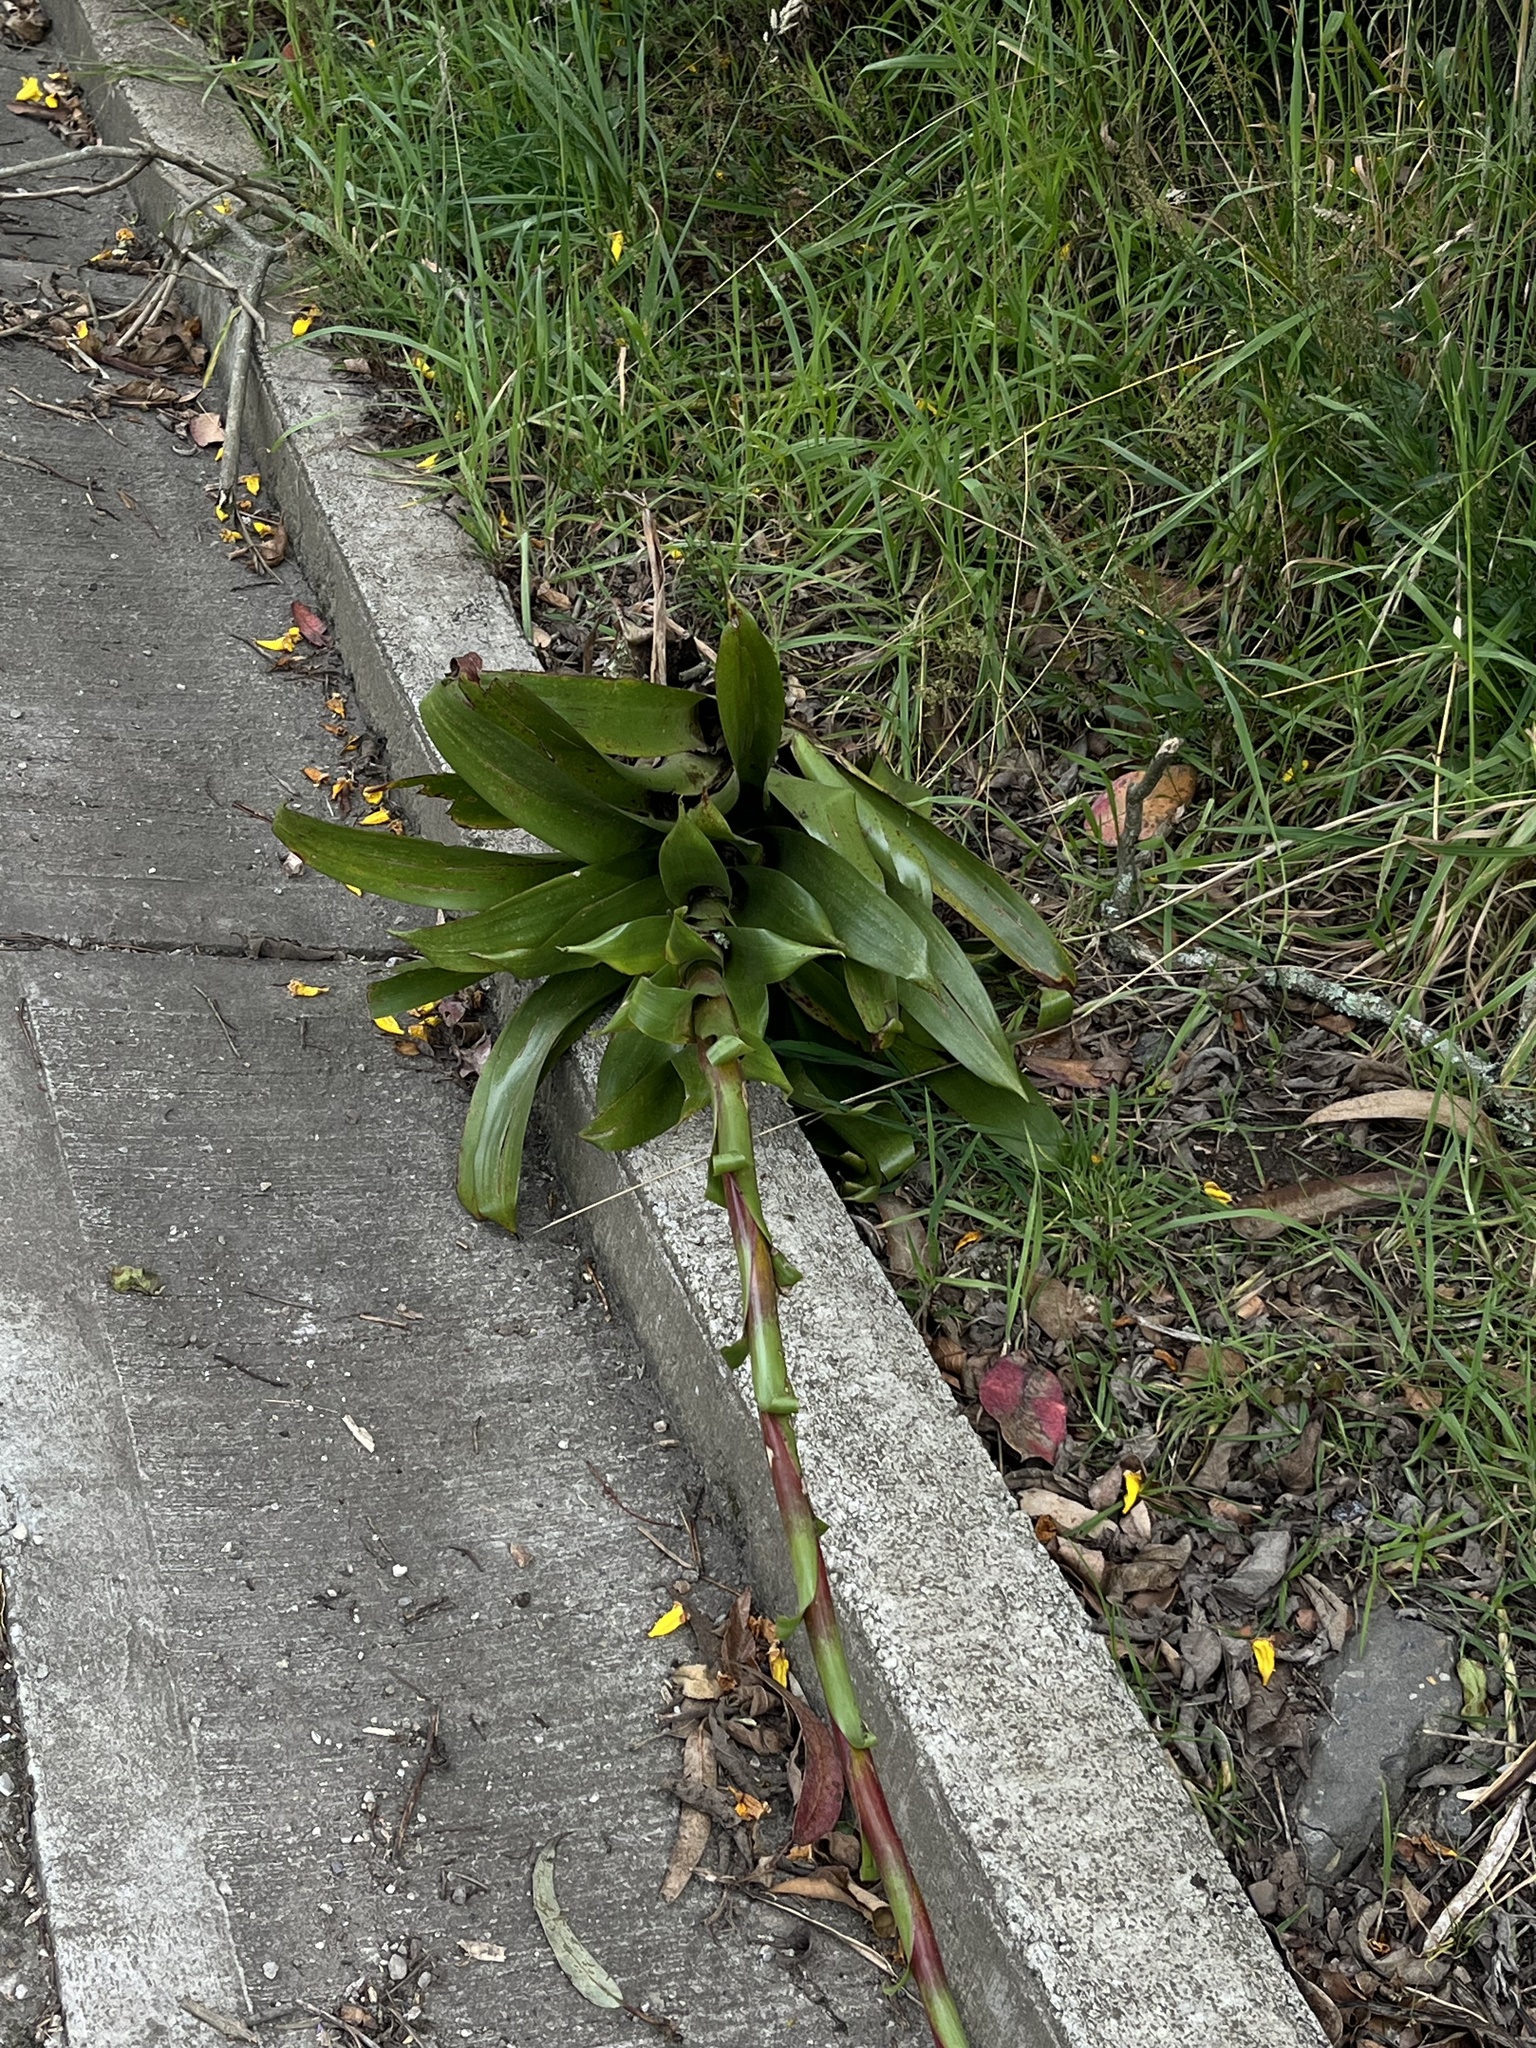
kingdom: Plantae
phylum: Tracheophyta
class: Liliopsida
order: Poales
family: Bromeliaceae
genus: Tillandsia
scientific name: Tillandsia denudata
